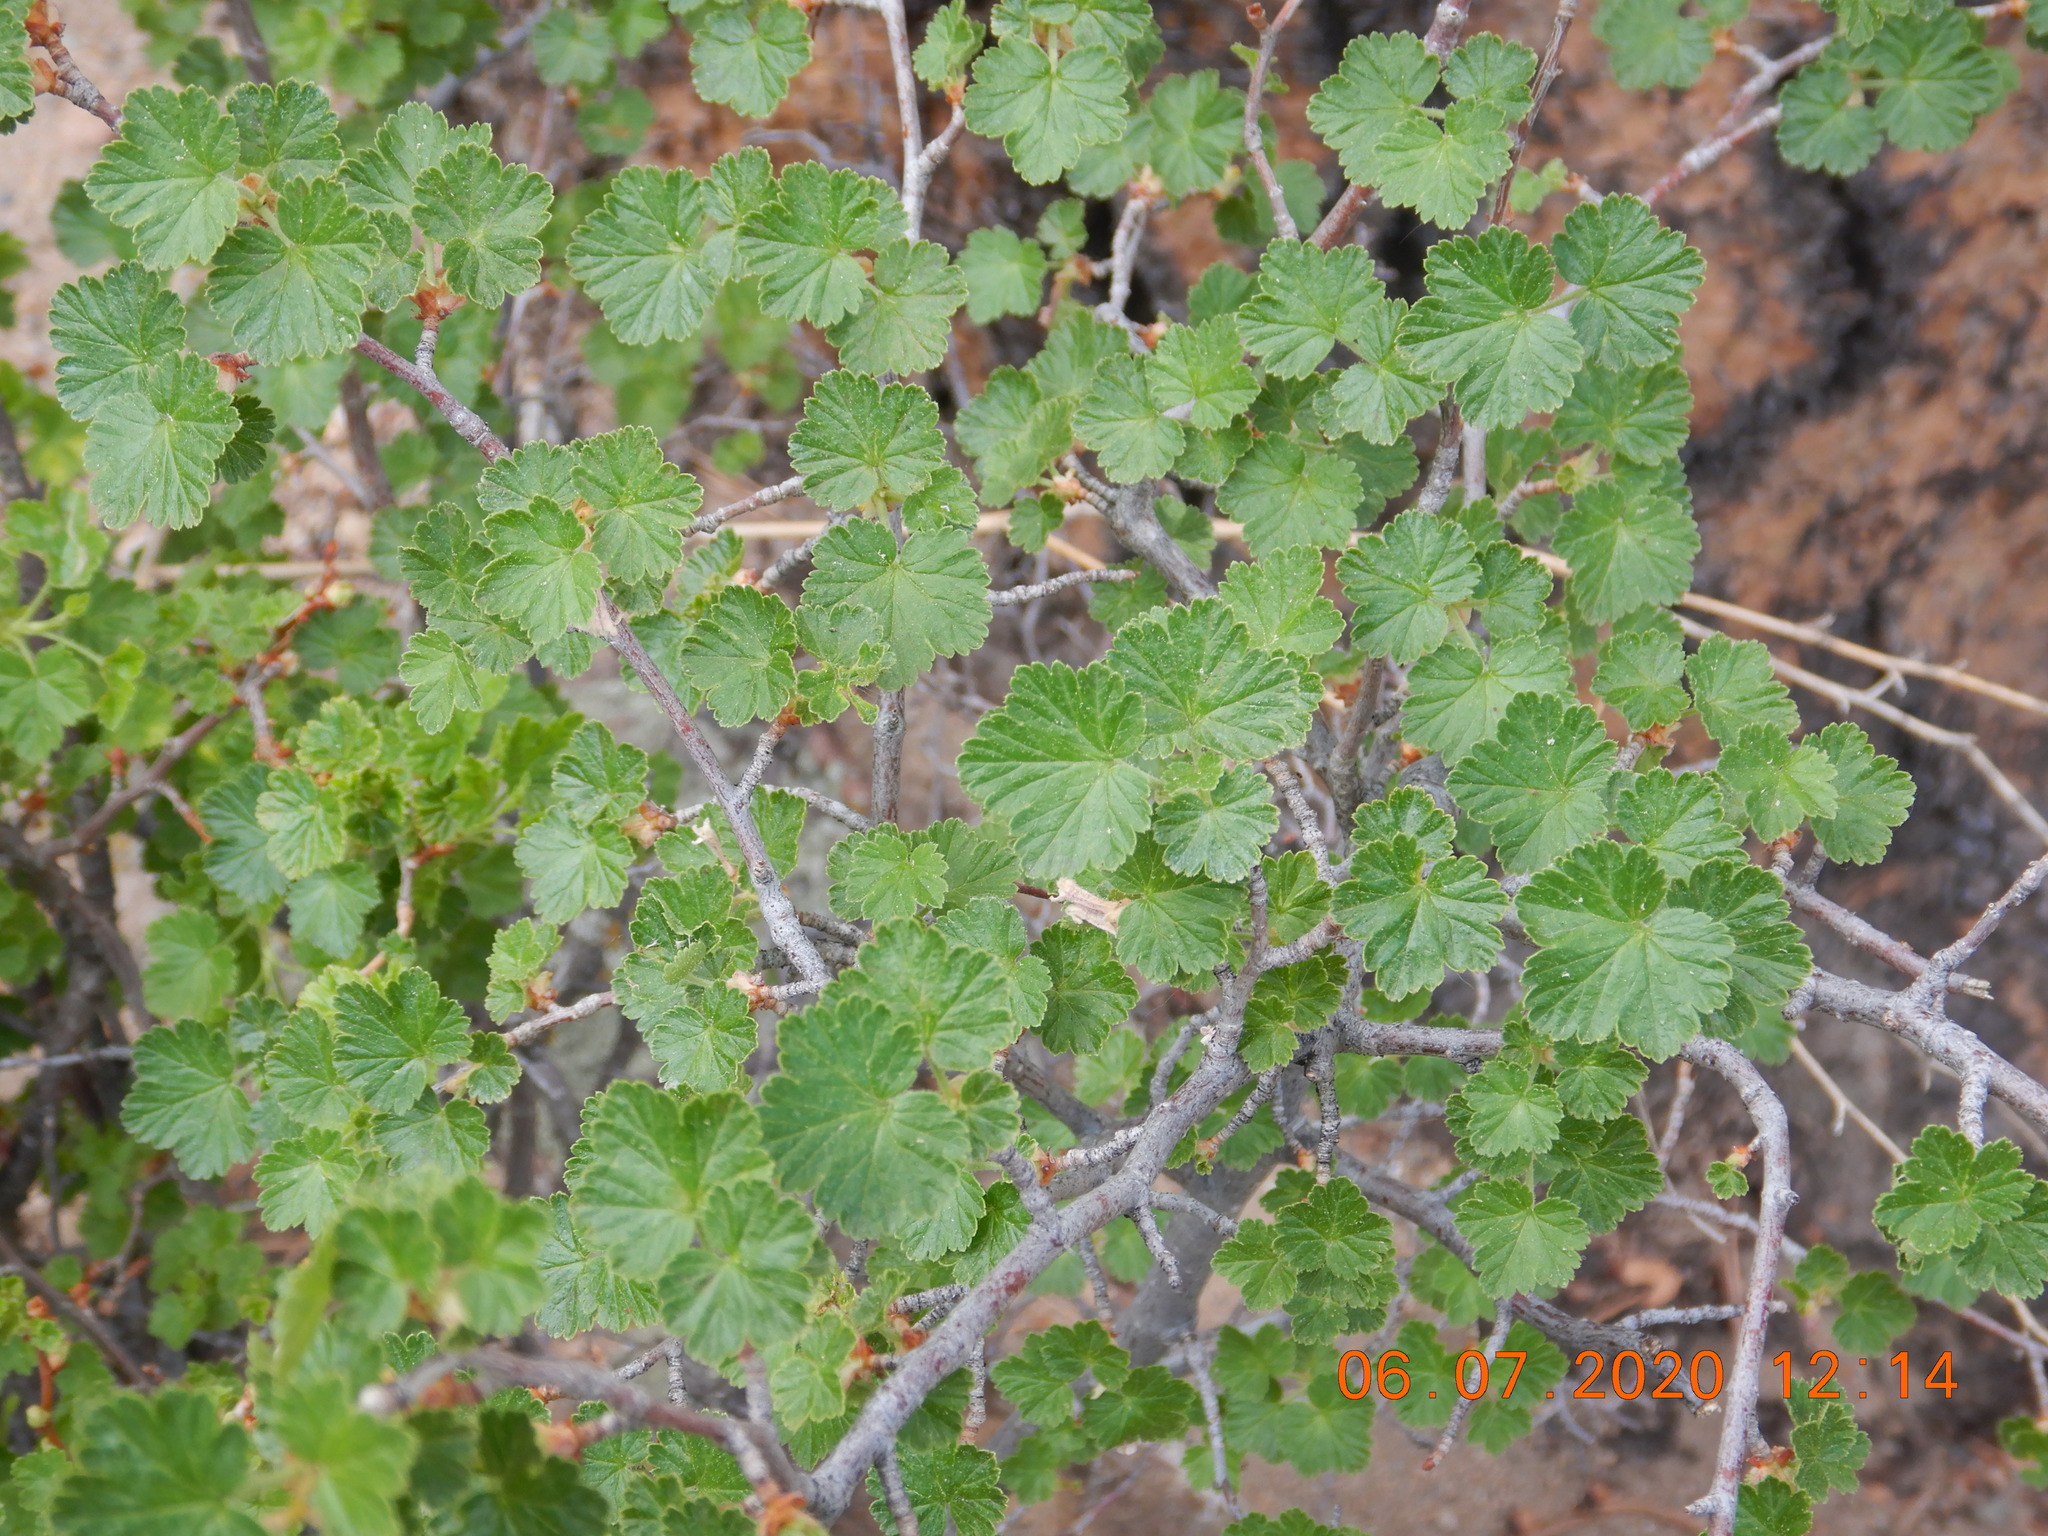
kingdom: Plantae
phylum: Tracheophyta
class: Magnoliopsida
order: Saxifragales
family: Grossulariaceae
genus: Ribes
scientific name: Ribes cereum
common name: Wax currant
